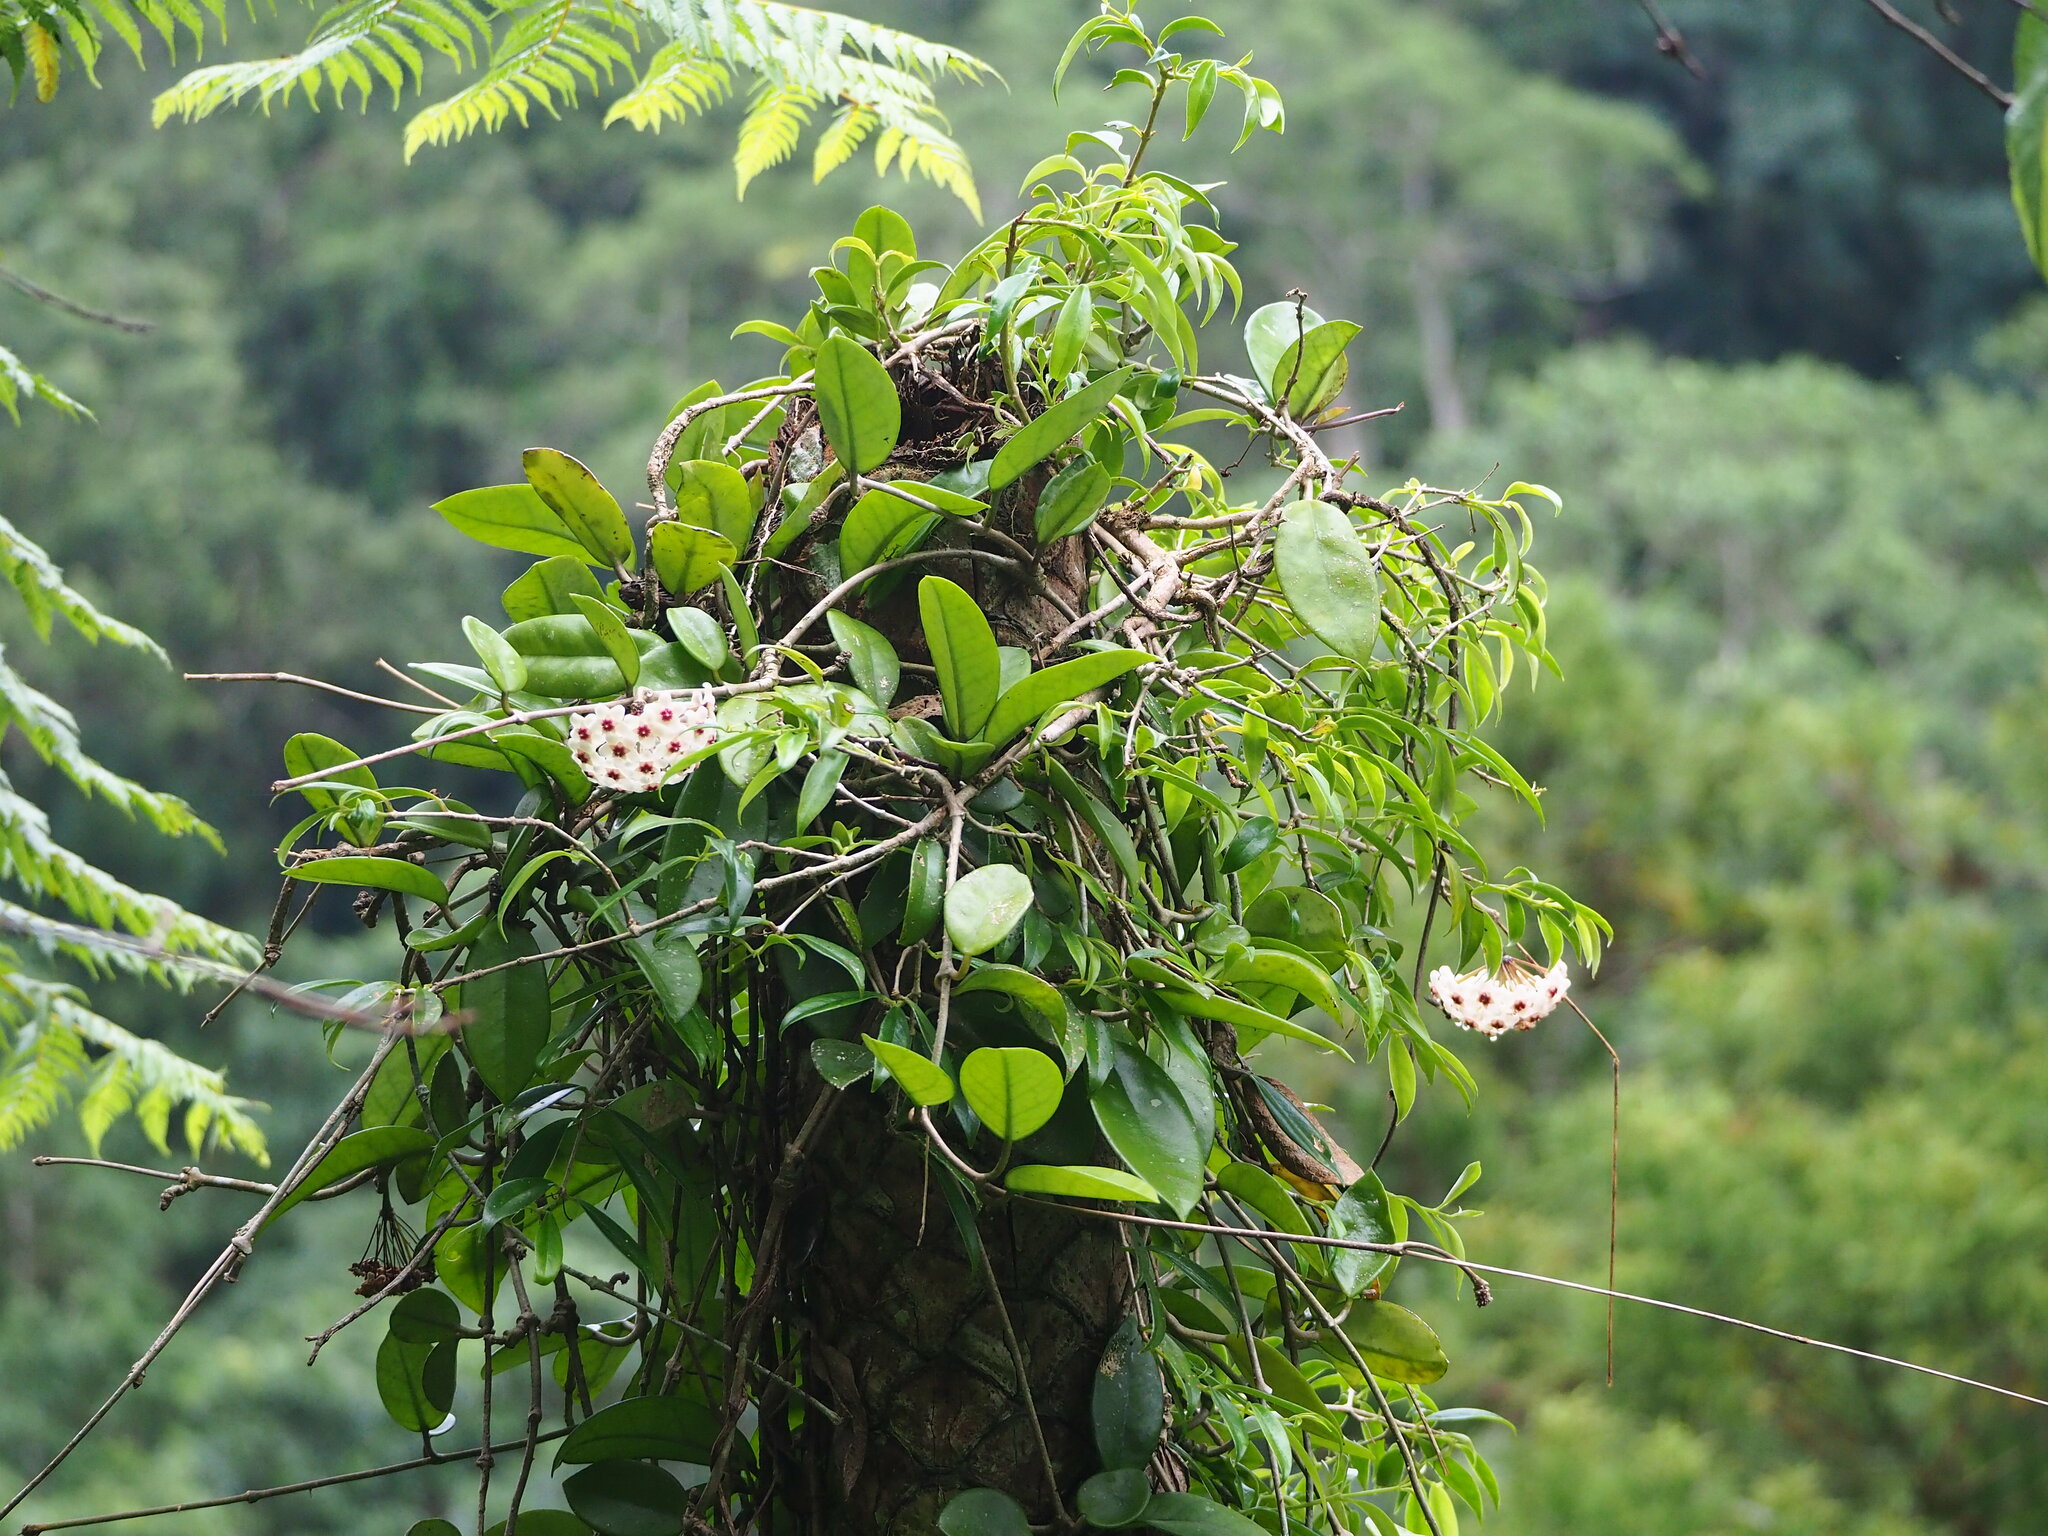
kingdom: Plantae
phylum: Tracheophyta
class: Magnoliopsida
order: Gentianales
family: Apocynaceae
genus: Hoya
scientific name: Hoya carnosa
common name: Honeyplant
